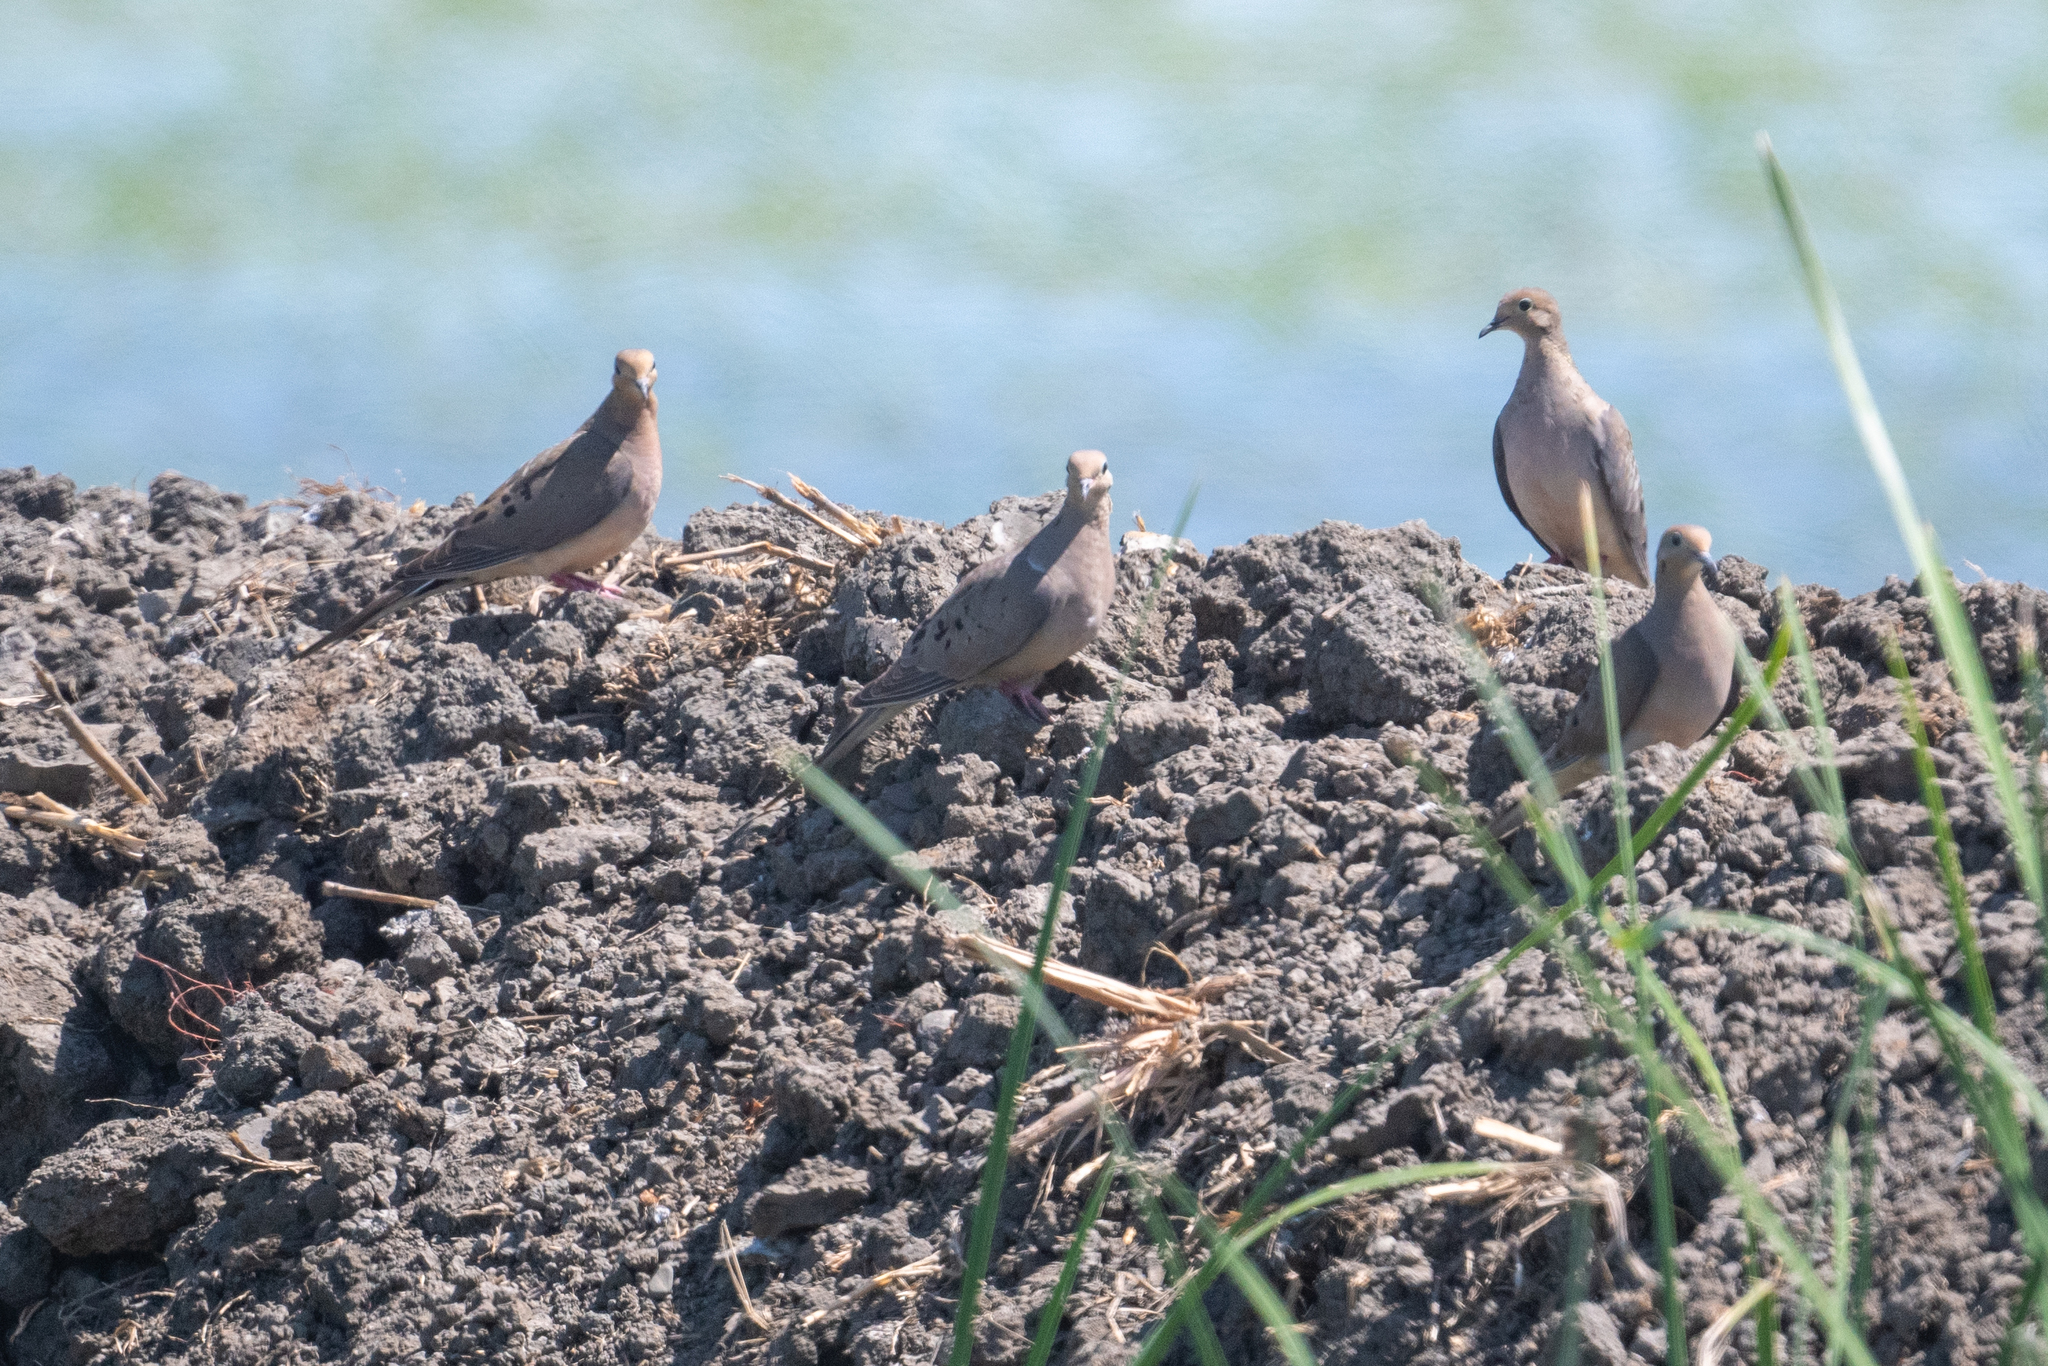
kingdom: Animalia
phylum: Chordata
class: Aves
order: Columbiformes
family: Columbidae
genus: Zenaida
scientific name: Zenaida macroura
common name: Mourning dove
